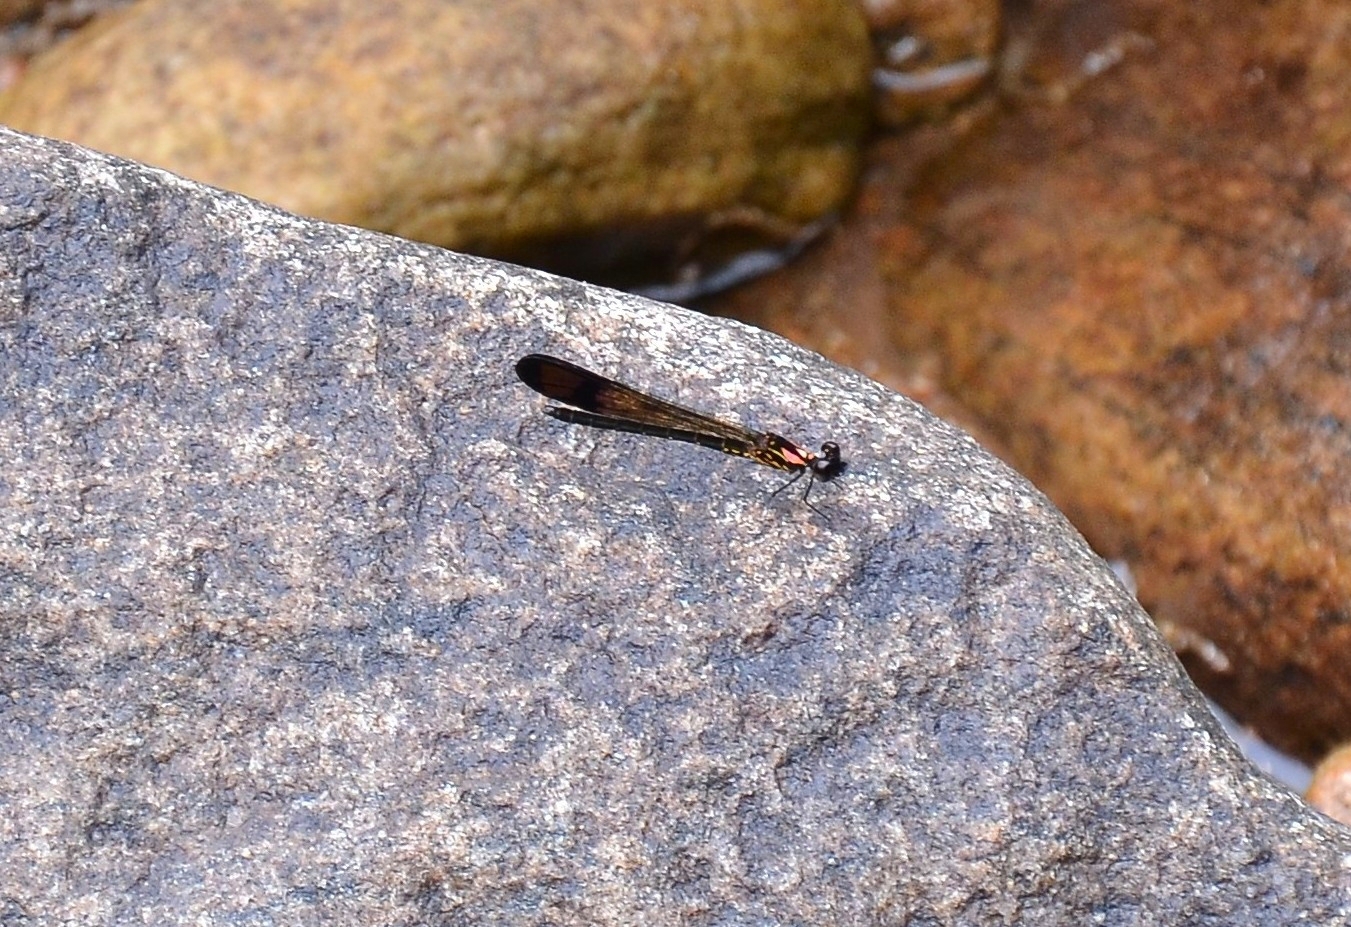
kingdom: Animalia
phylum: Arthropoda
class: Insecta
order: Odonata
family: Chlorocyphidae
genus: Heliocypha
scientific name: Heliocypha bisignata
